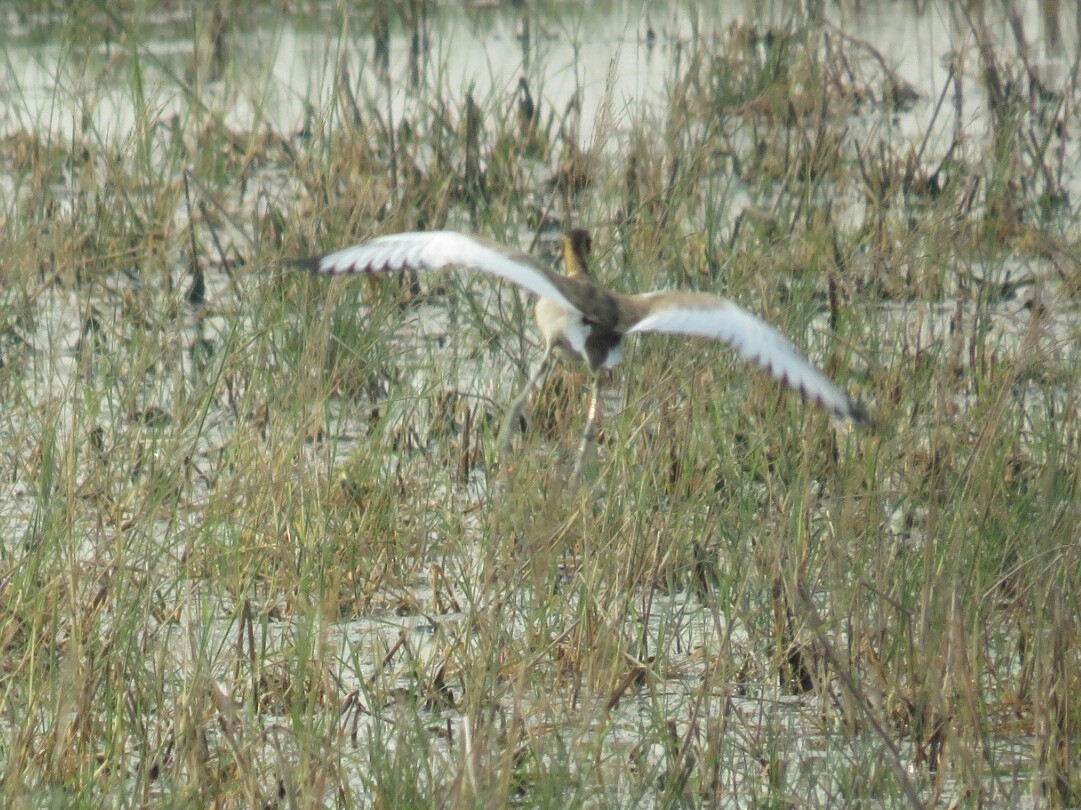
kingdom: Animalia
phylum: Chordata
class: Aves
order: Charadriiformes
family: Jacanidae
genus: Hydrophasianus
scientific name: Hydrophasianus chirurgus
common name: Pheasant-tailed jacana
